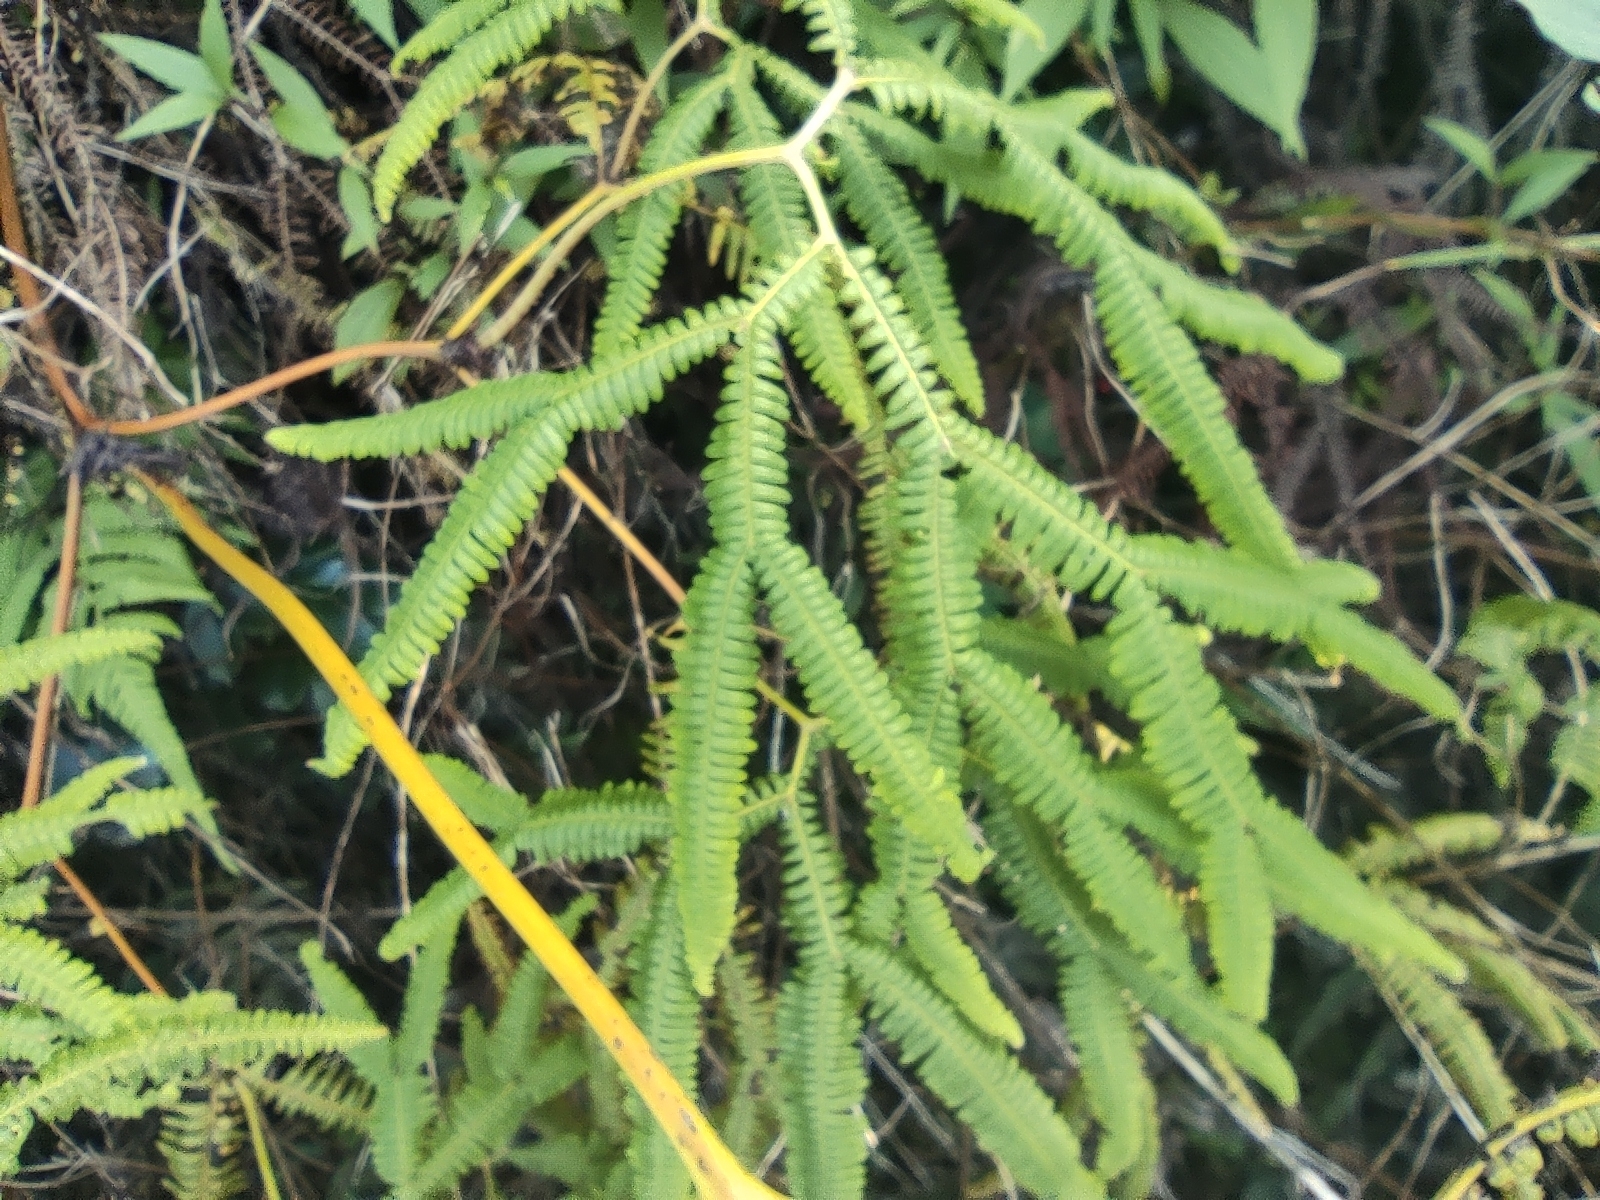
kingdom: Plantae
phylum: Tracheophyta
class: Polypodiopsida
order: Gleicheniales
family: Gleicheniaceae
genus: Sticherus
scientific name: Sticherus flagellaris
